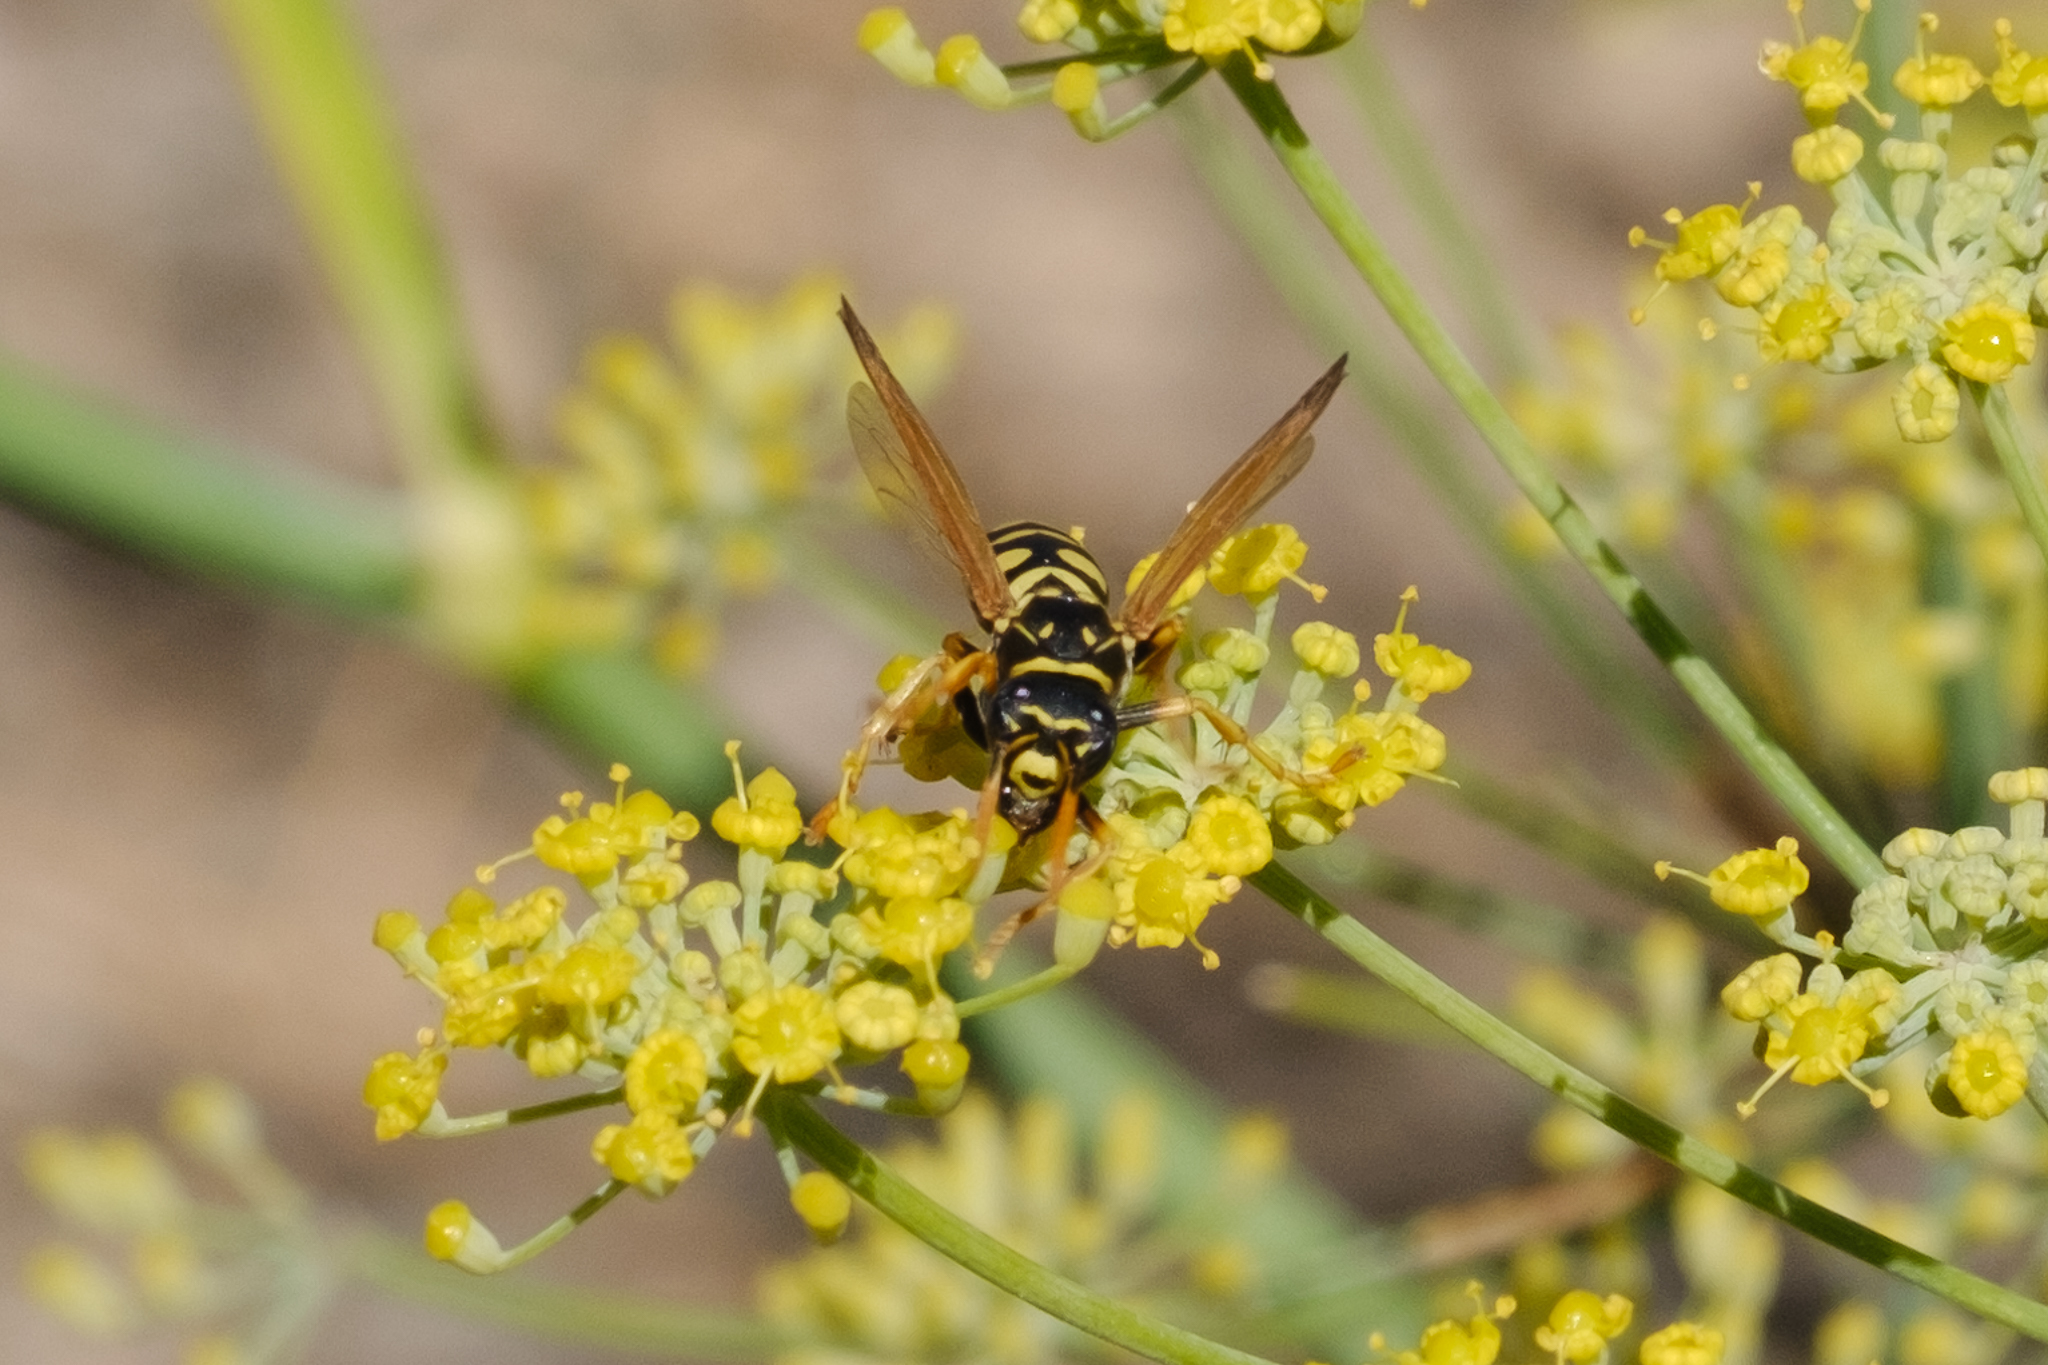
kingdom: Animalia
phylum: Arthropoda
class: Insecta
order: Hymenoptera
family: Eumenidae
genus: Polistes
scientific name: Polistes dominula
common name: Paper wasp
